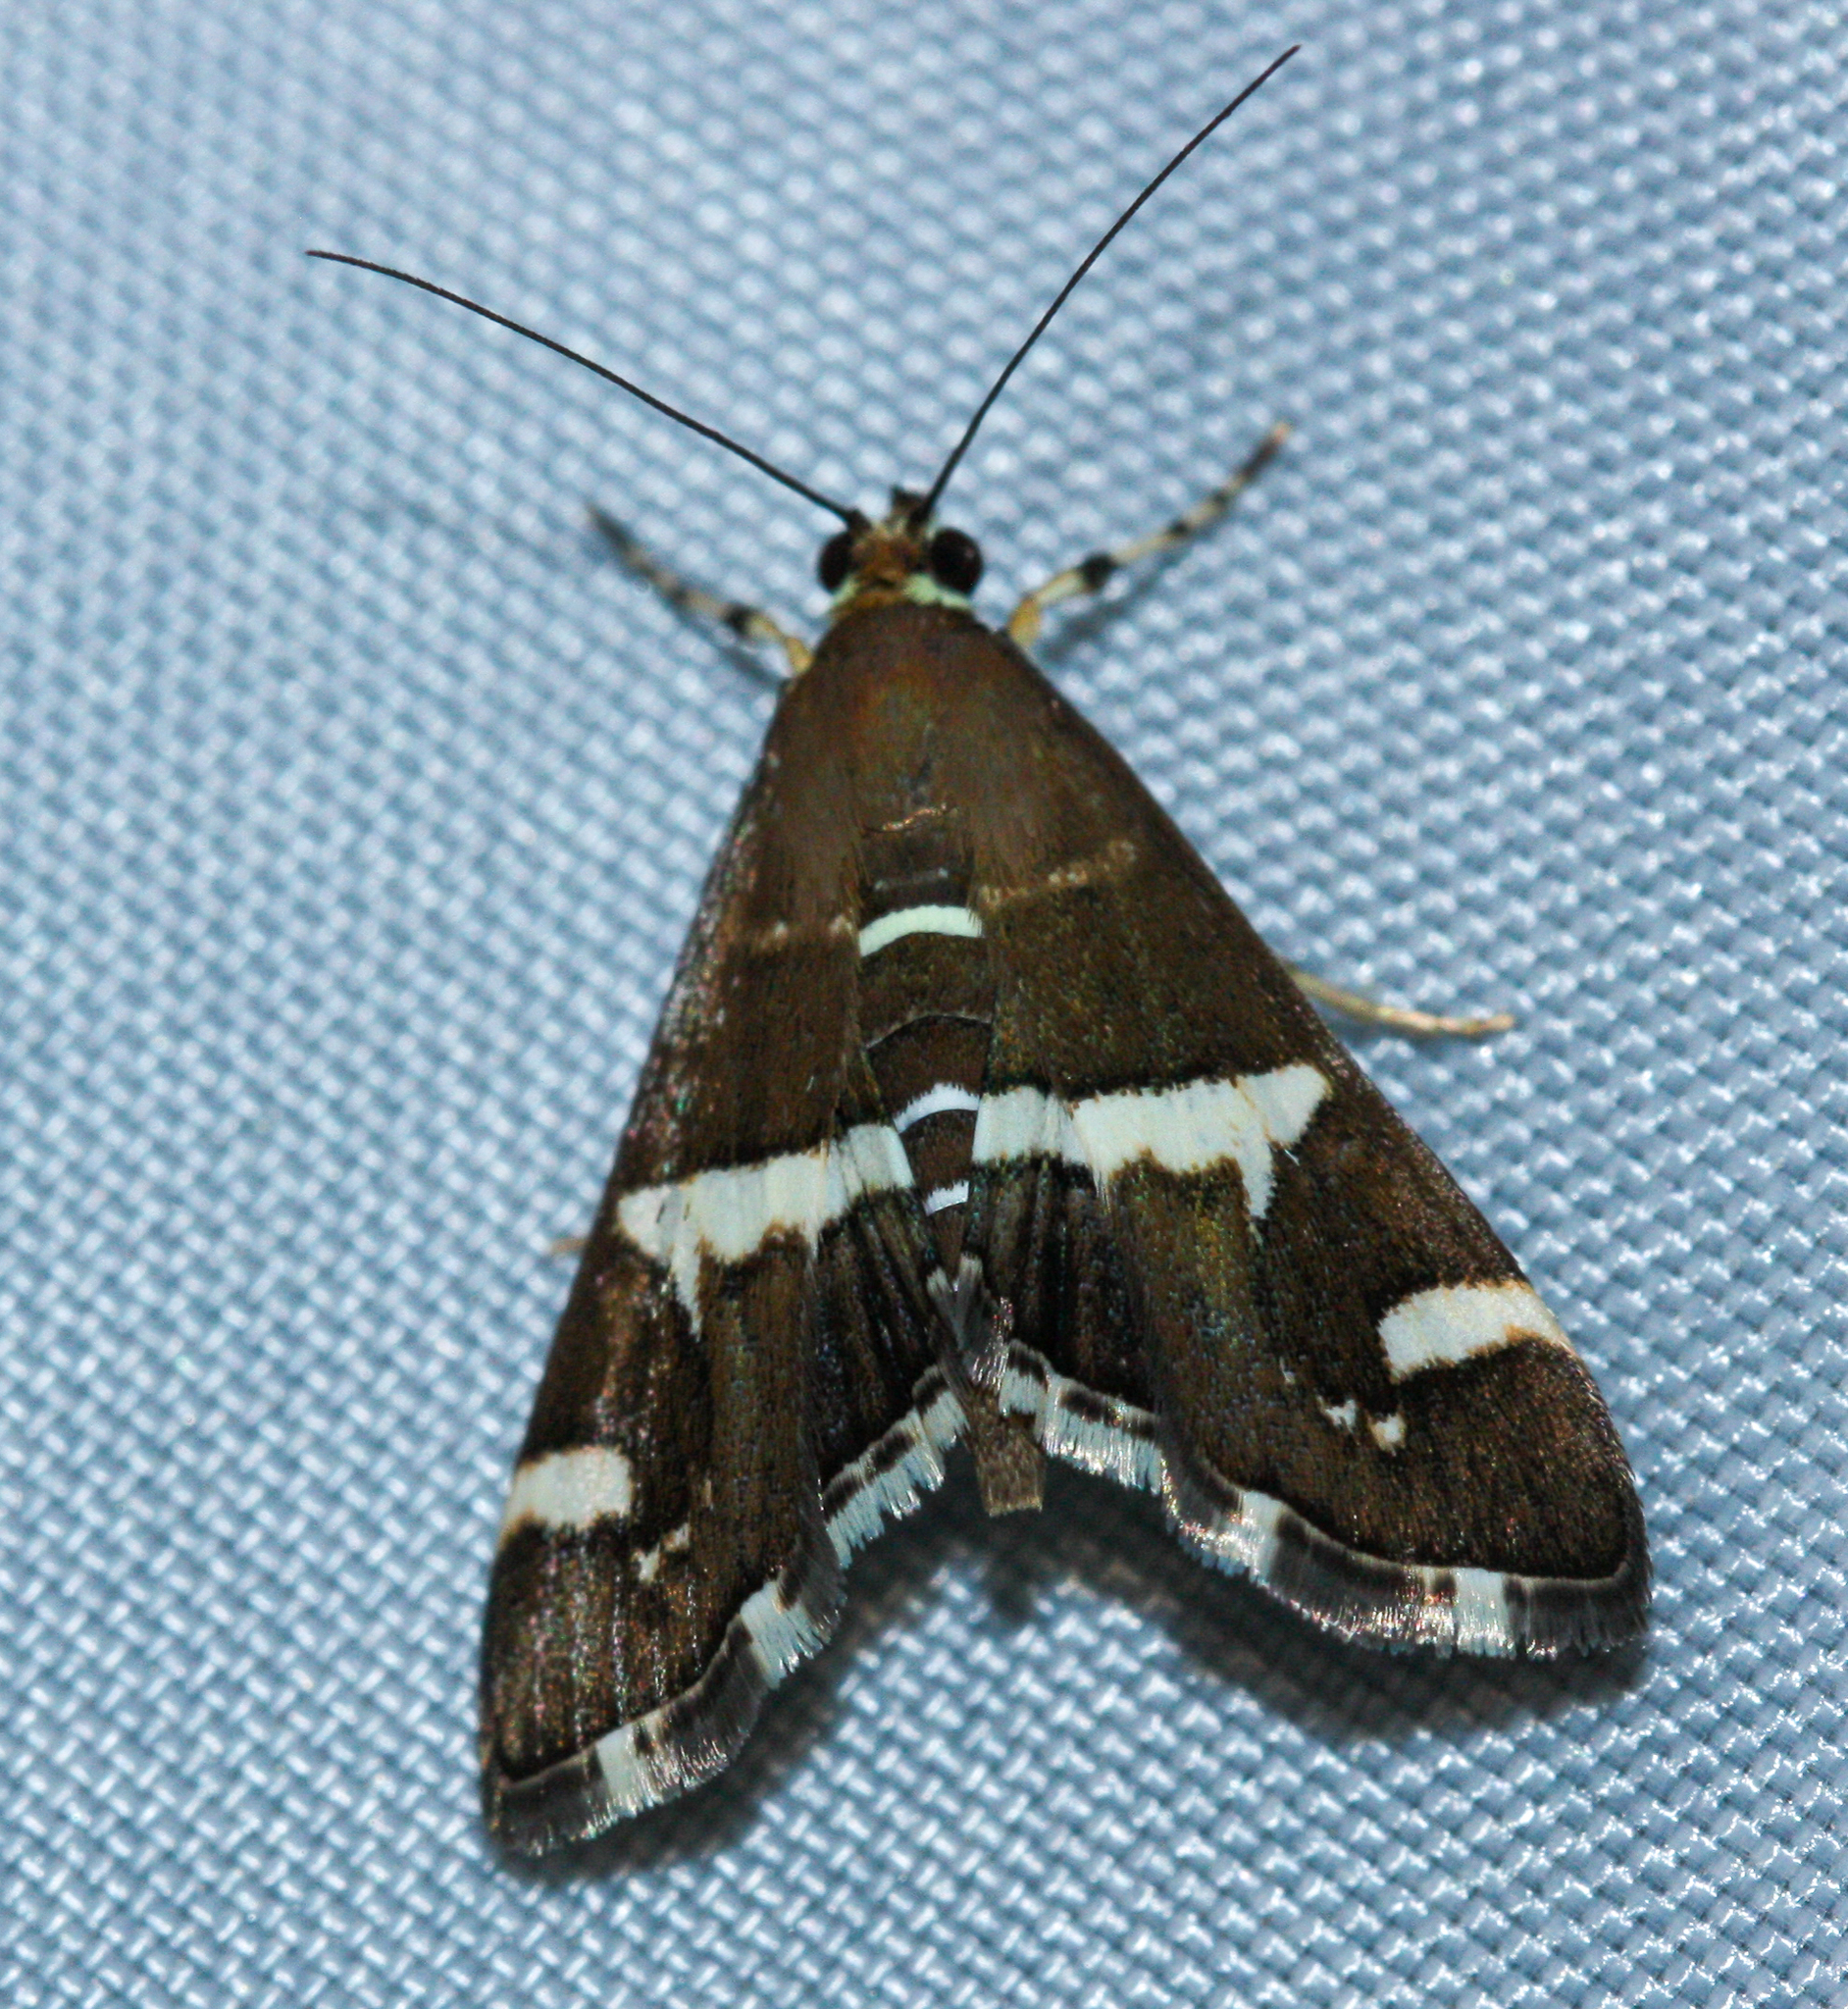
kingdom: Animalia
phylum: Arthropoda
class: Insecta
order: Lepidoptera
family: Crambidae
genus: Spoladea
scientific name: Spoladea recurvalis
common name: Beet webworm moth
